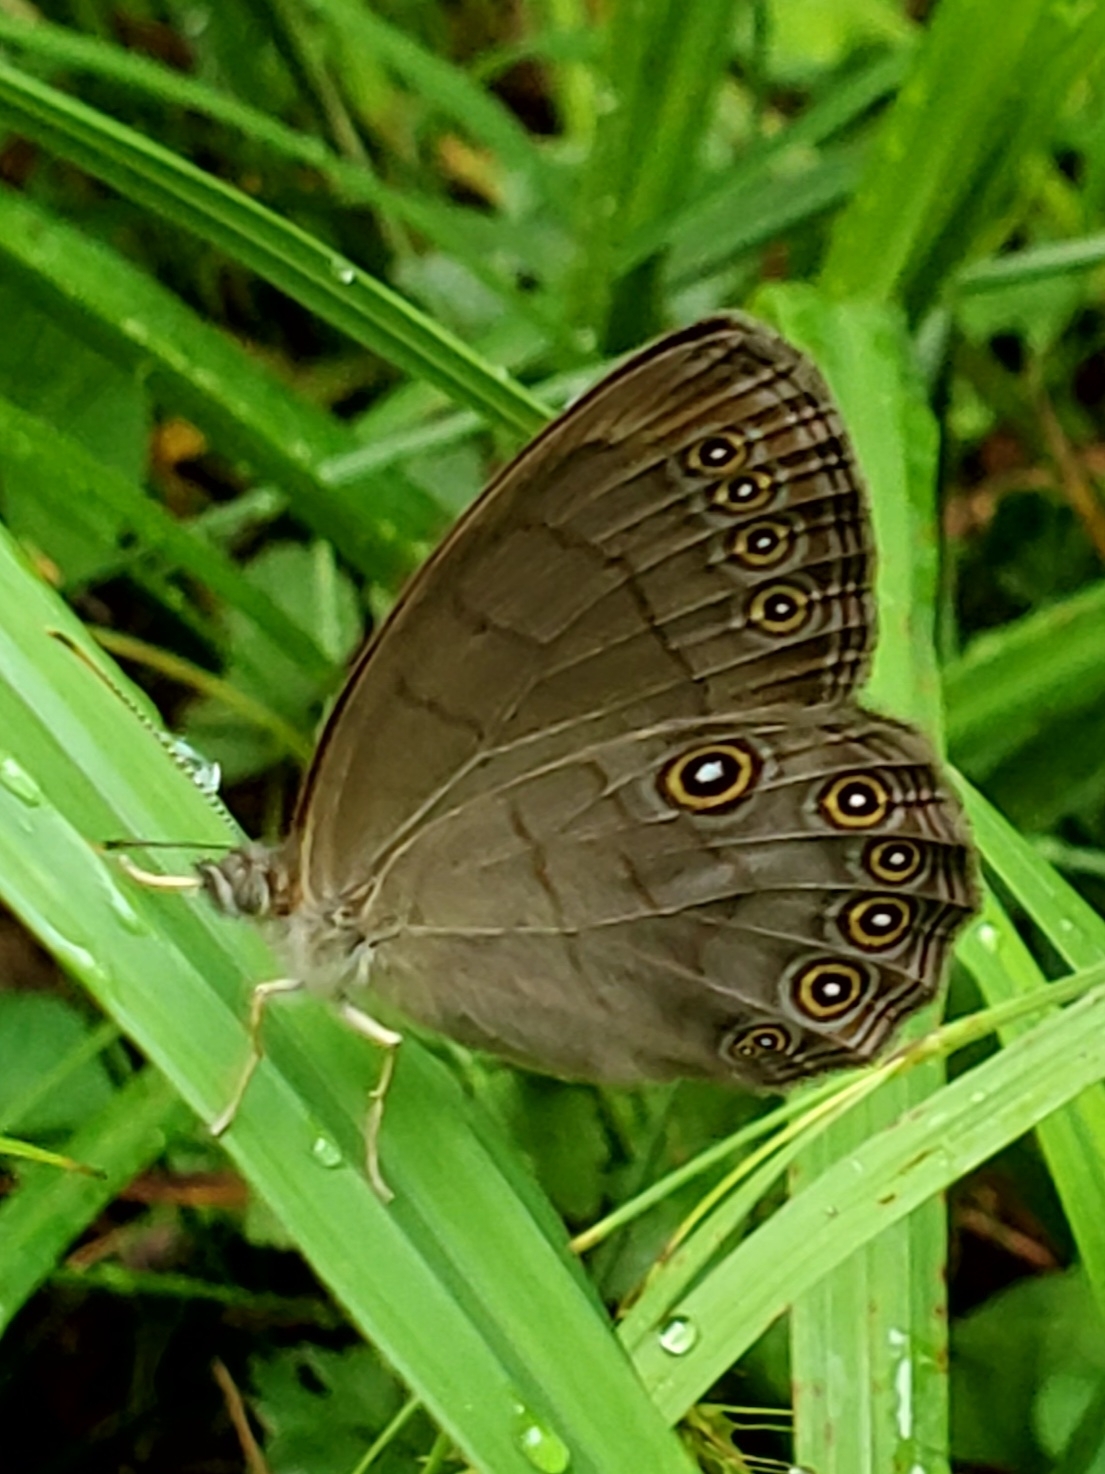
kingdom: Animalia
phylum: Arthropoda
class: Insecta
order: Lepidoptera
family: Nymphalidae
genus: Lethe
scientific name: Lethe eurydice
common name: Eyed brown
